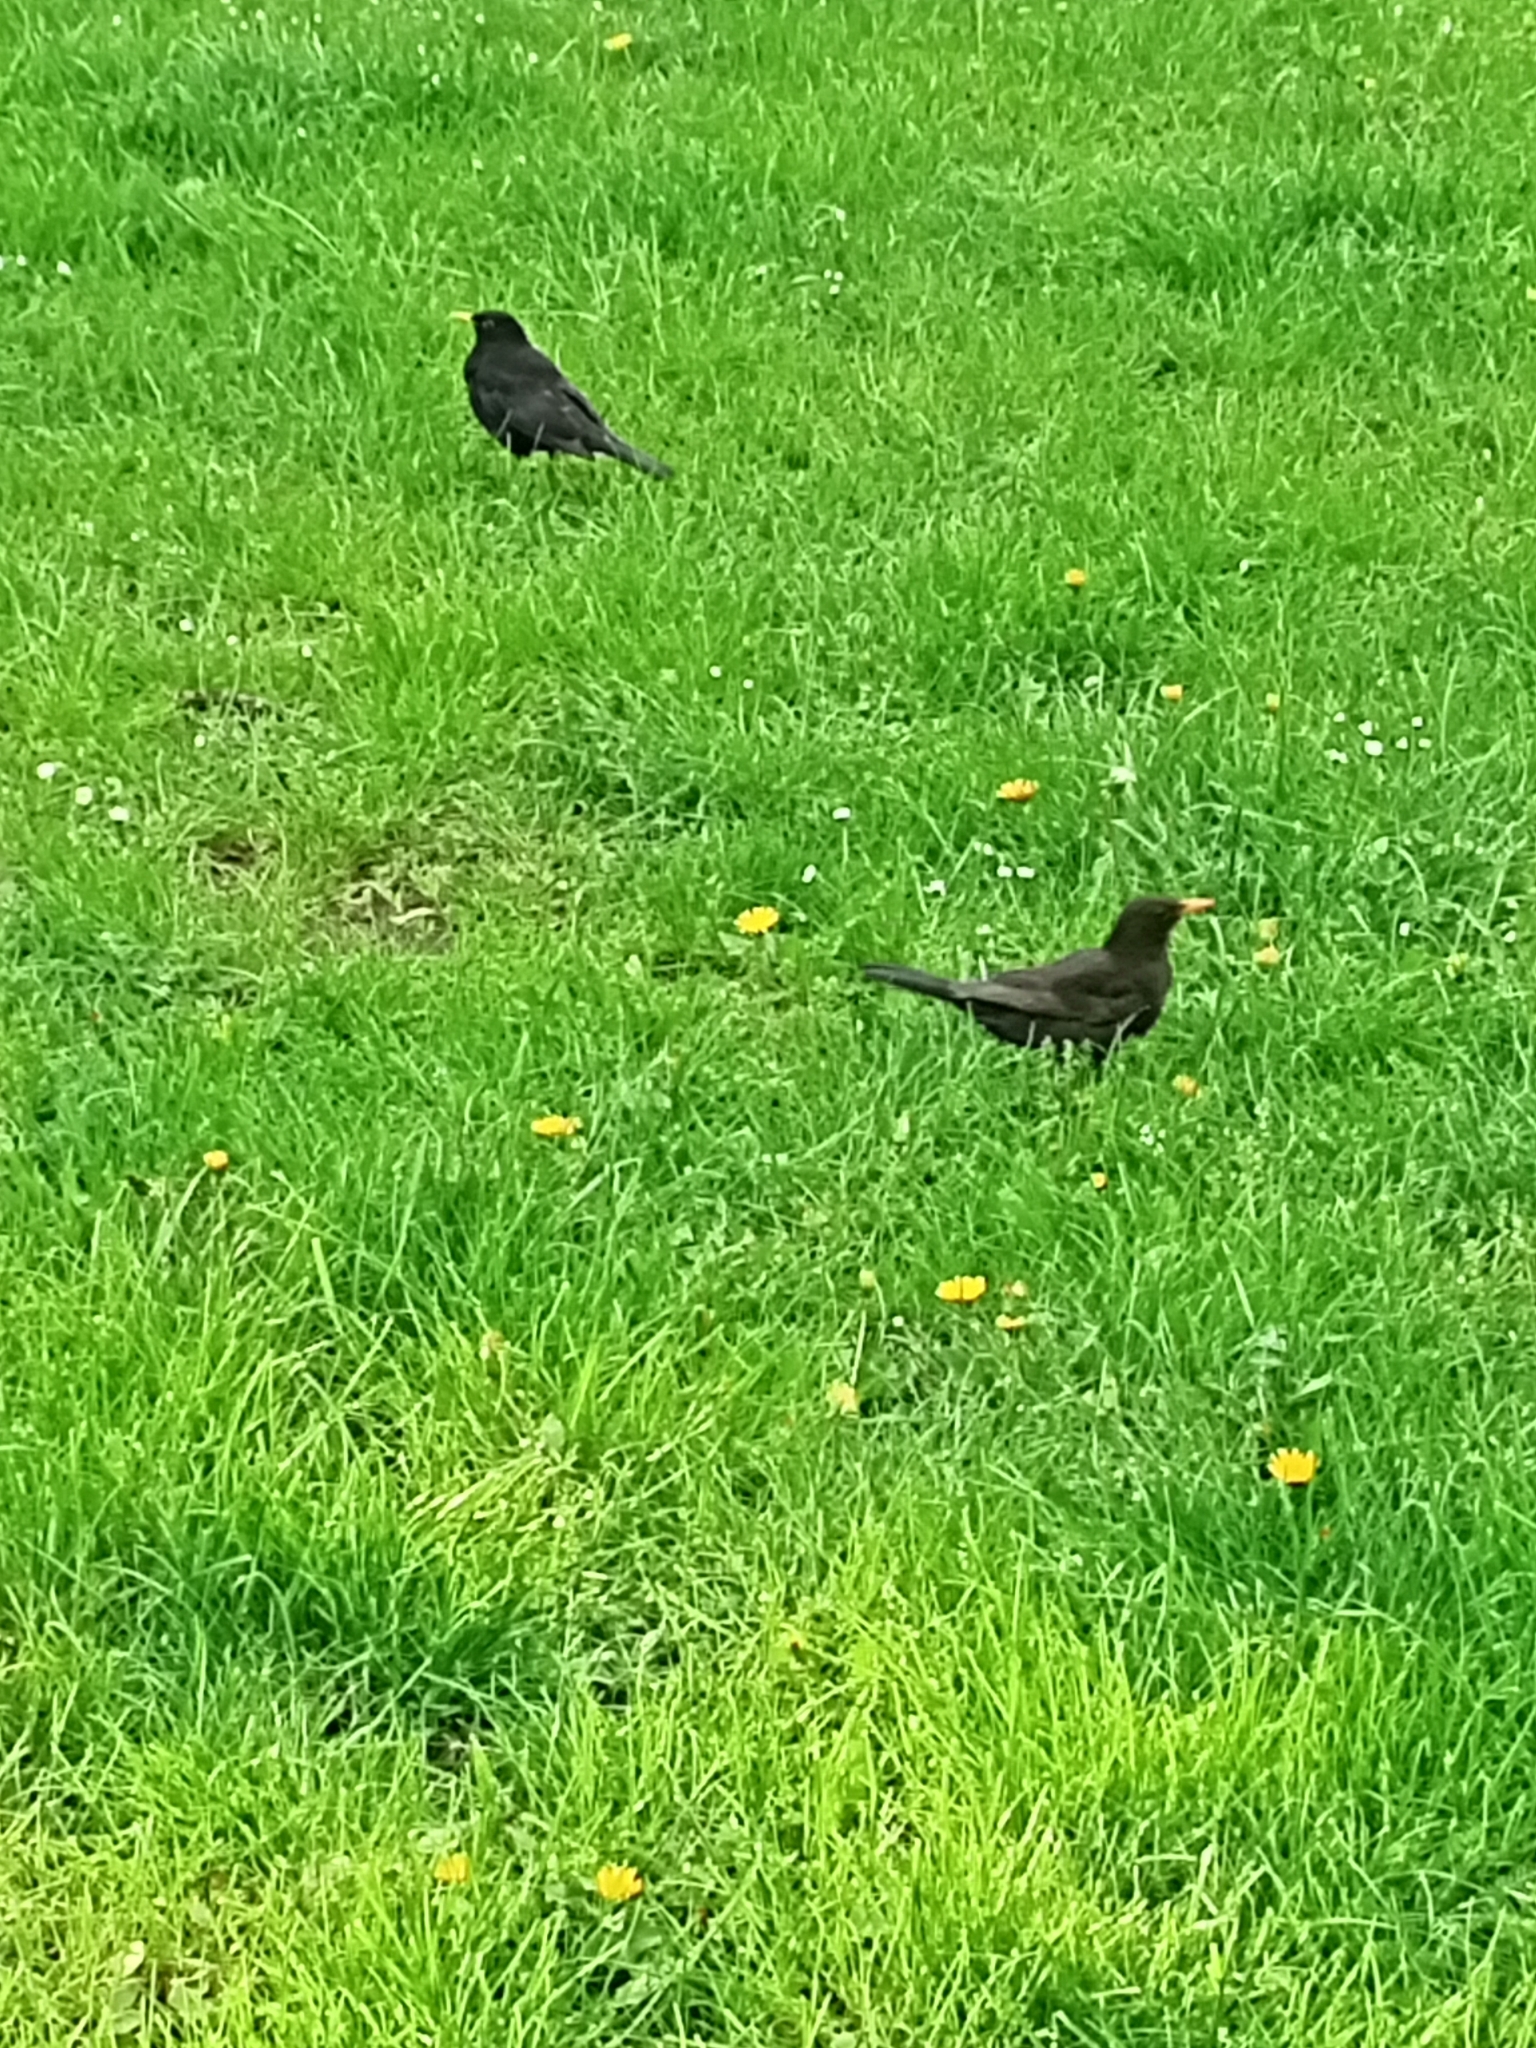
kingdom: Animalia
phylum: Chordata
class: Aves
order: Passeriformes
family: Turdidae
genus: Turdus
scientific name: Turdus merula
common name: Common blackbird
